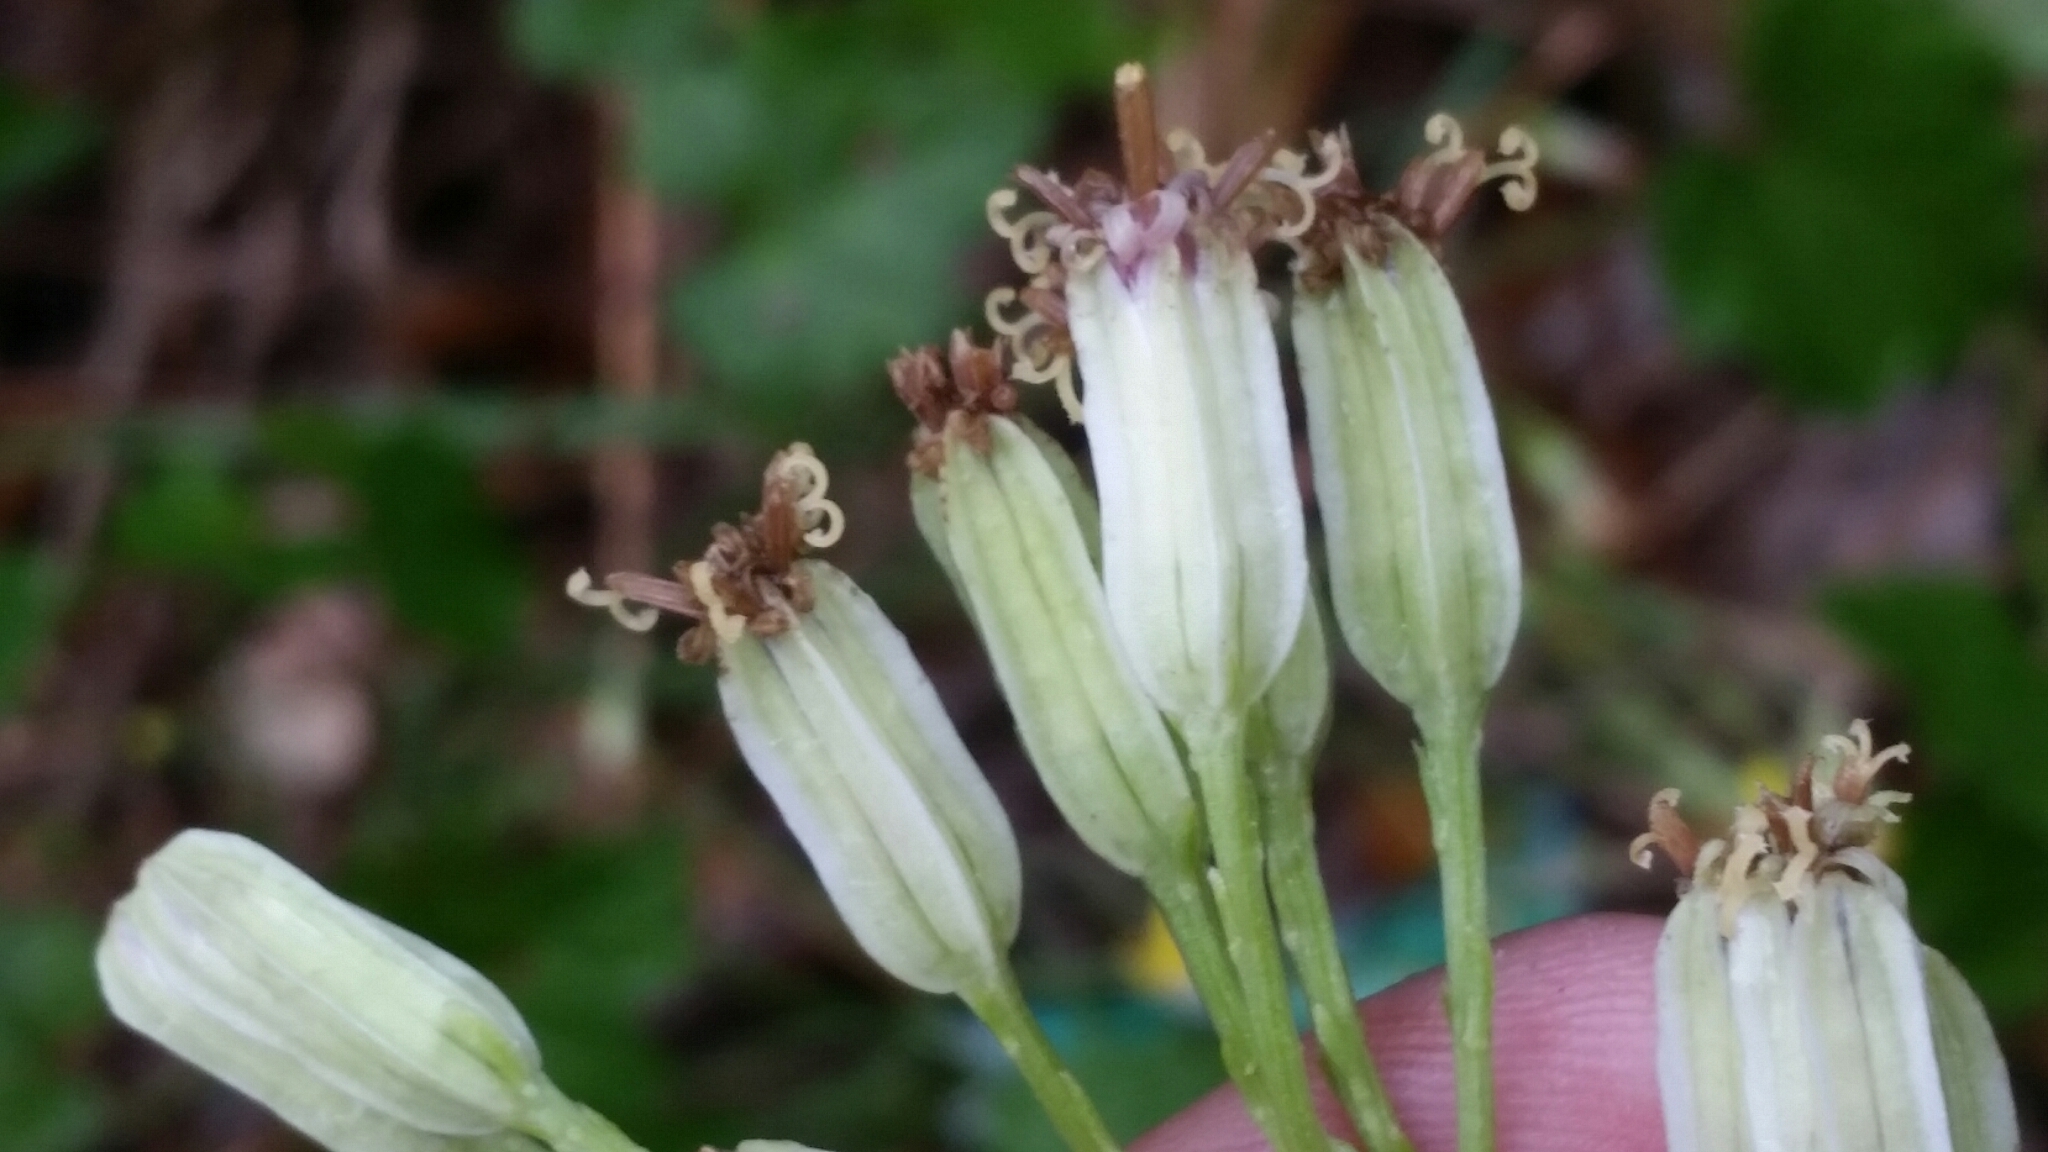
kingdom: Plantae
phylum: Tracheophyta
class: Magnoliopsida
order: Asterales
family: Asteraceae
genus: Arnoglossum
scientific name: Arnoglossum floridanum
